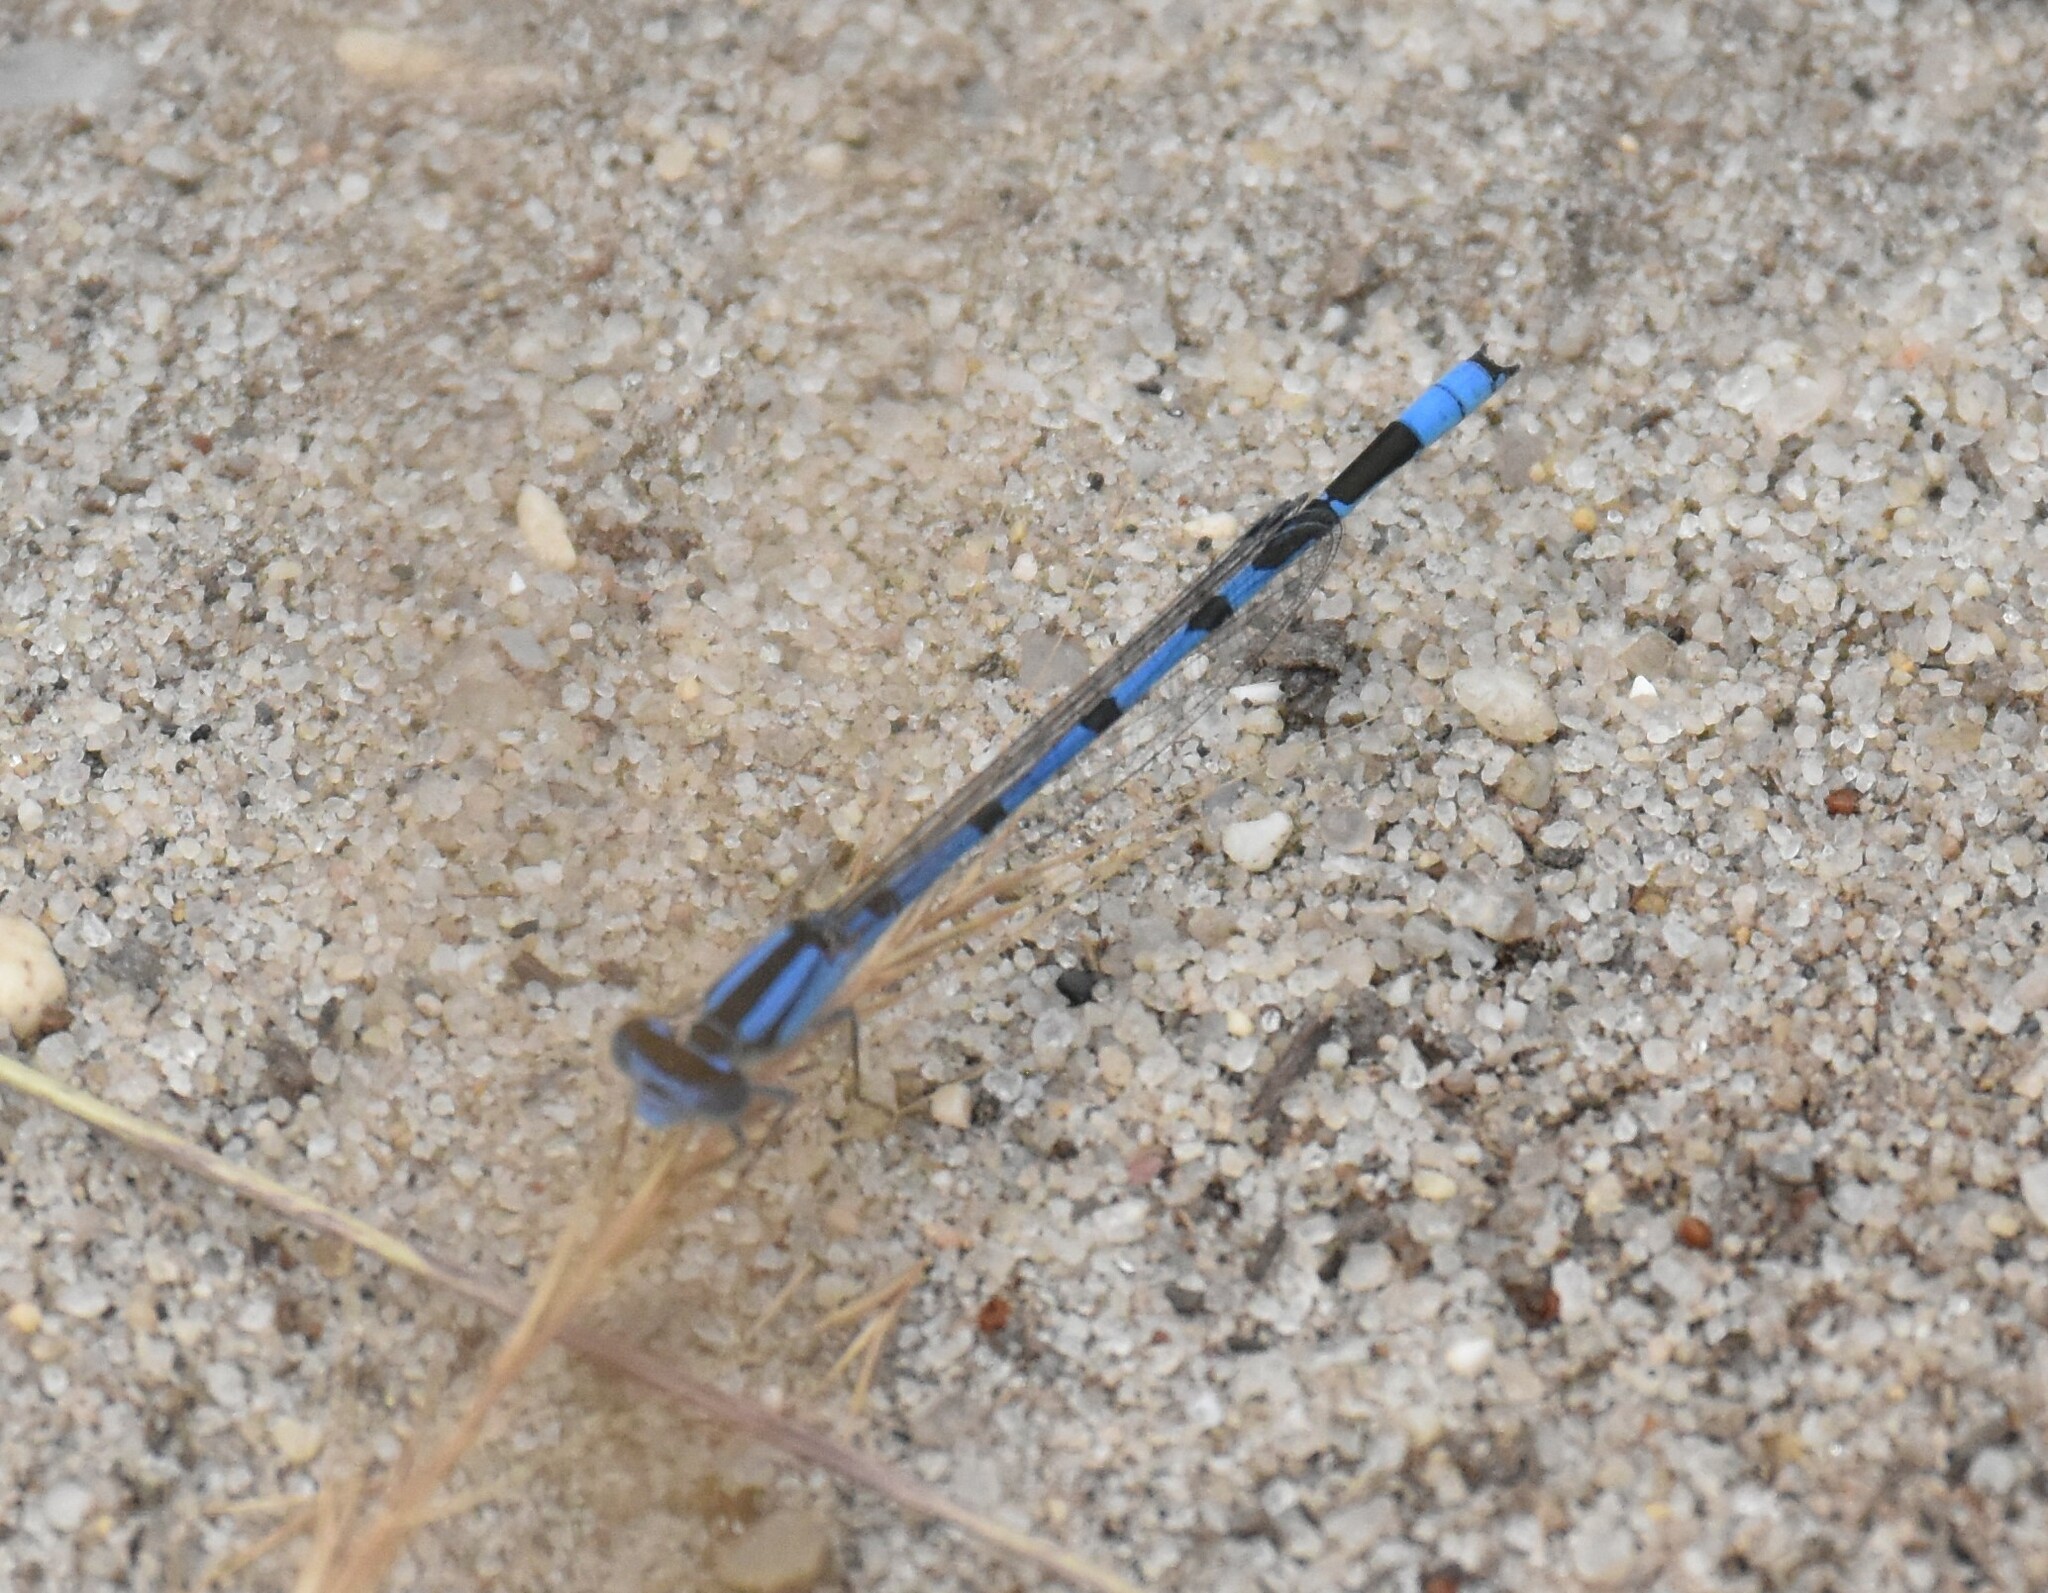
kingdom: Animalia
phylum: Arthropoda
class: Insecta
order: Odonata
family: Coenagrionidae
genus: Enallagma
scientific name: Enallagma civile
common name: Damselfly
